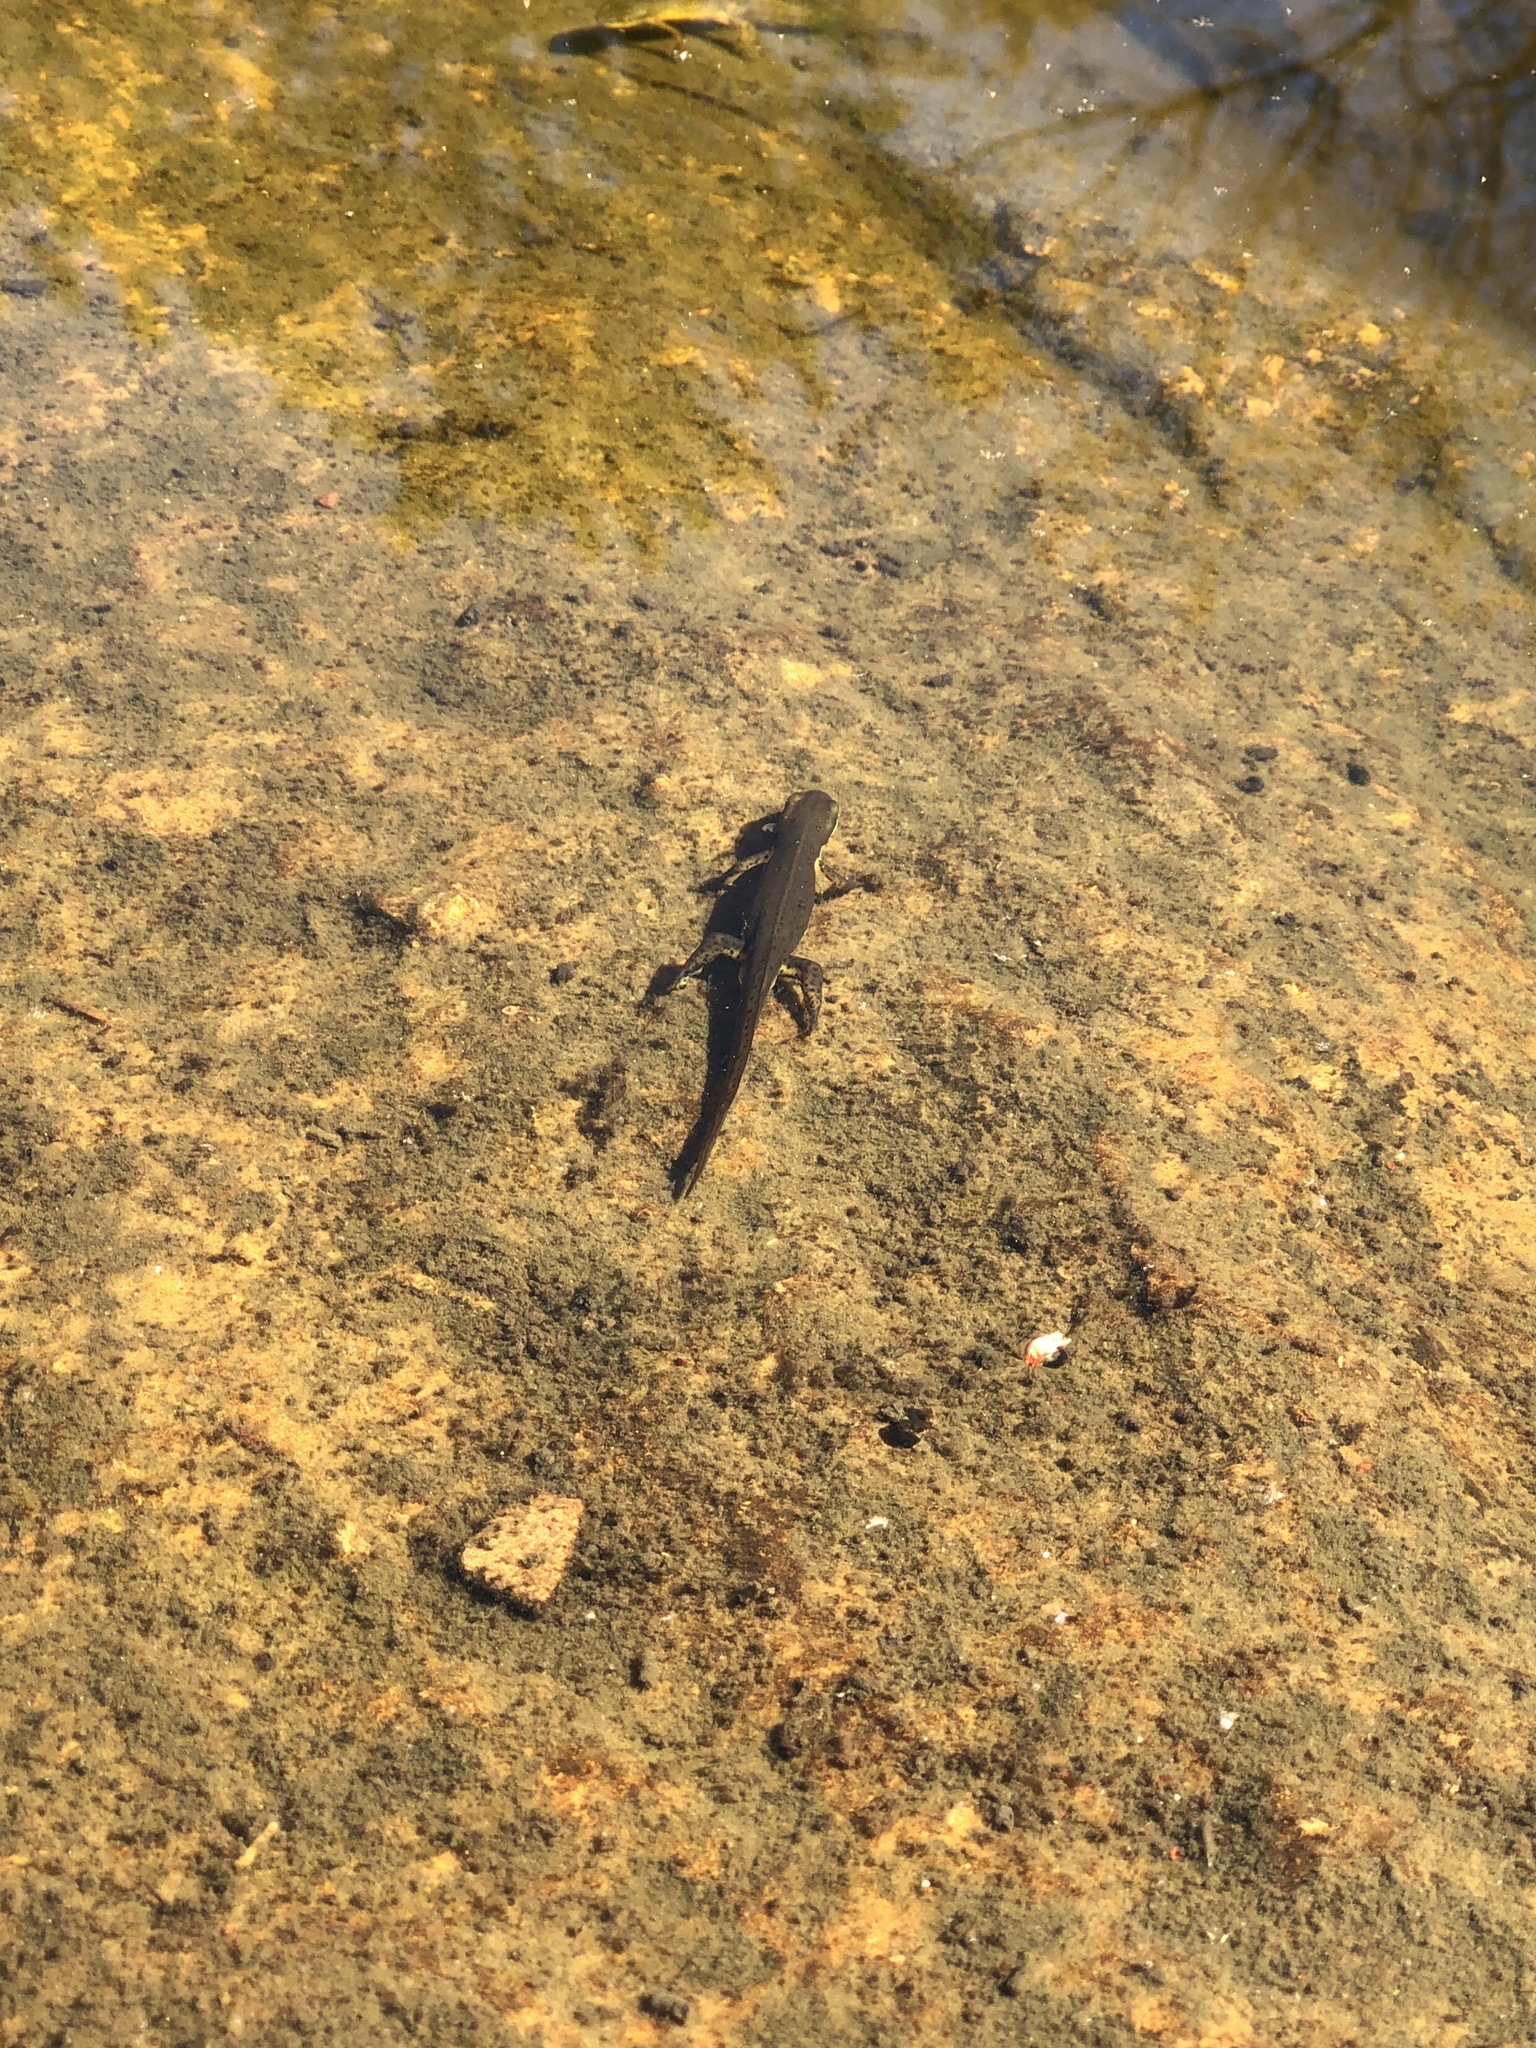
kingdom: Animalia
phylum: Chordata
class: Amphibia
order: Caudata
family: Salamandridae
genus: Notophthalmus
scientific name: Notophthalmus viridescens
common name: Eastern newt
